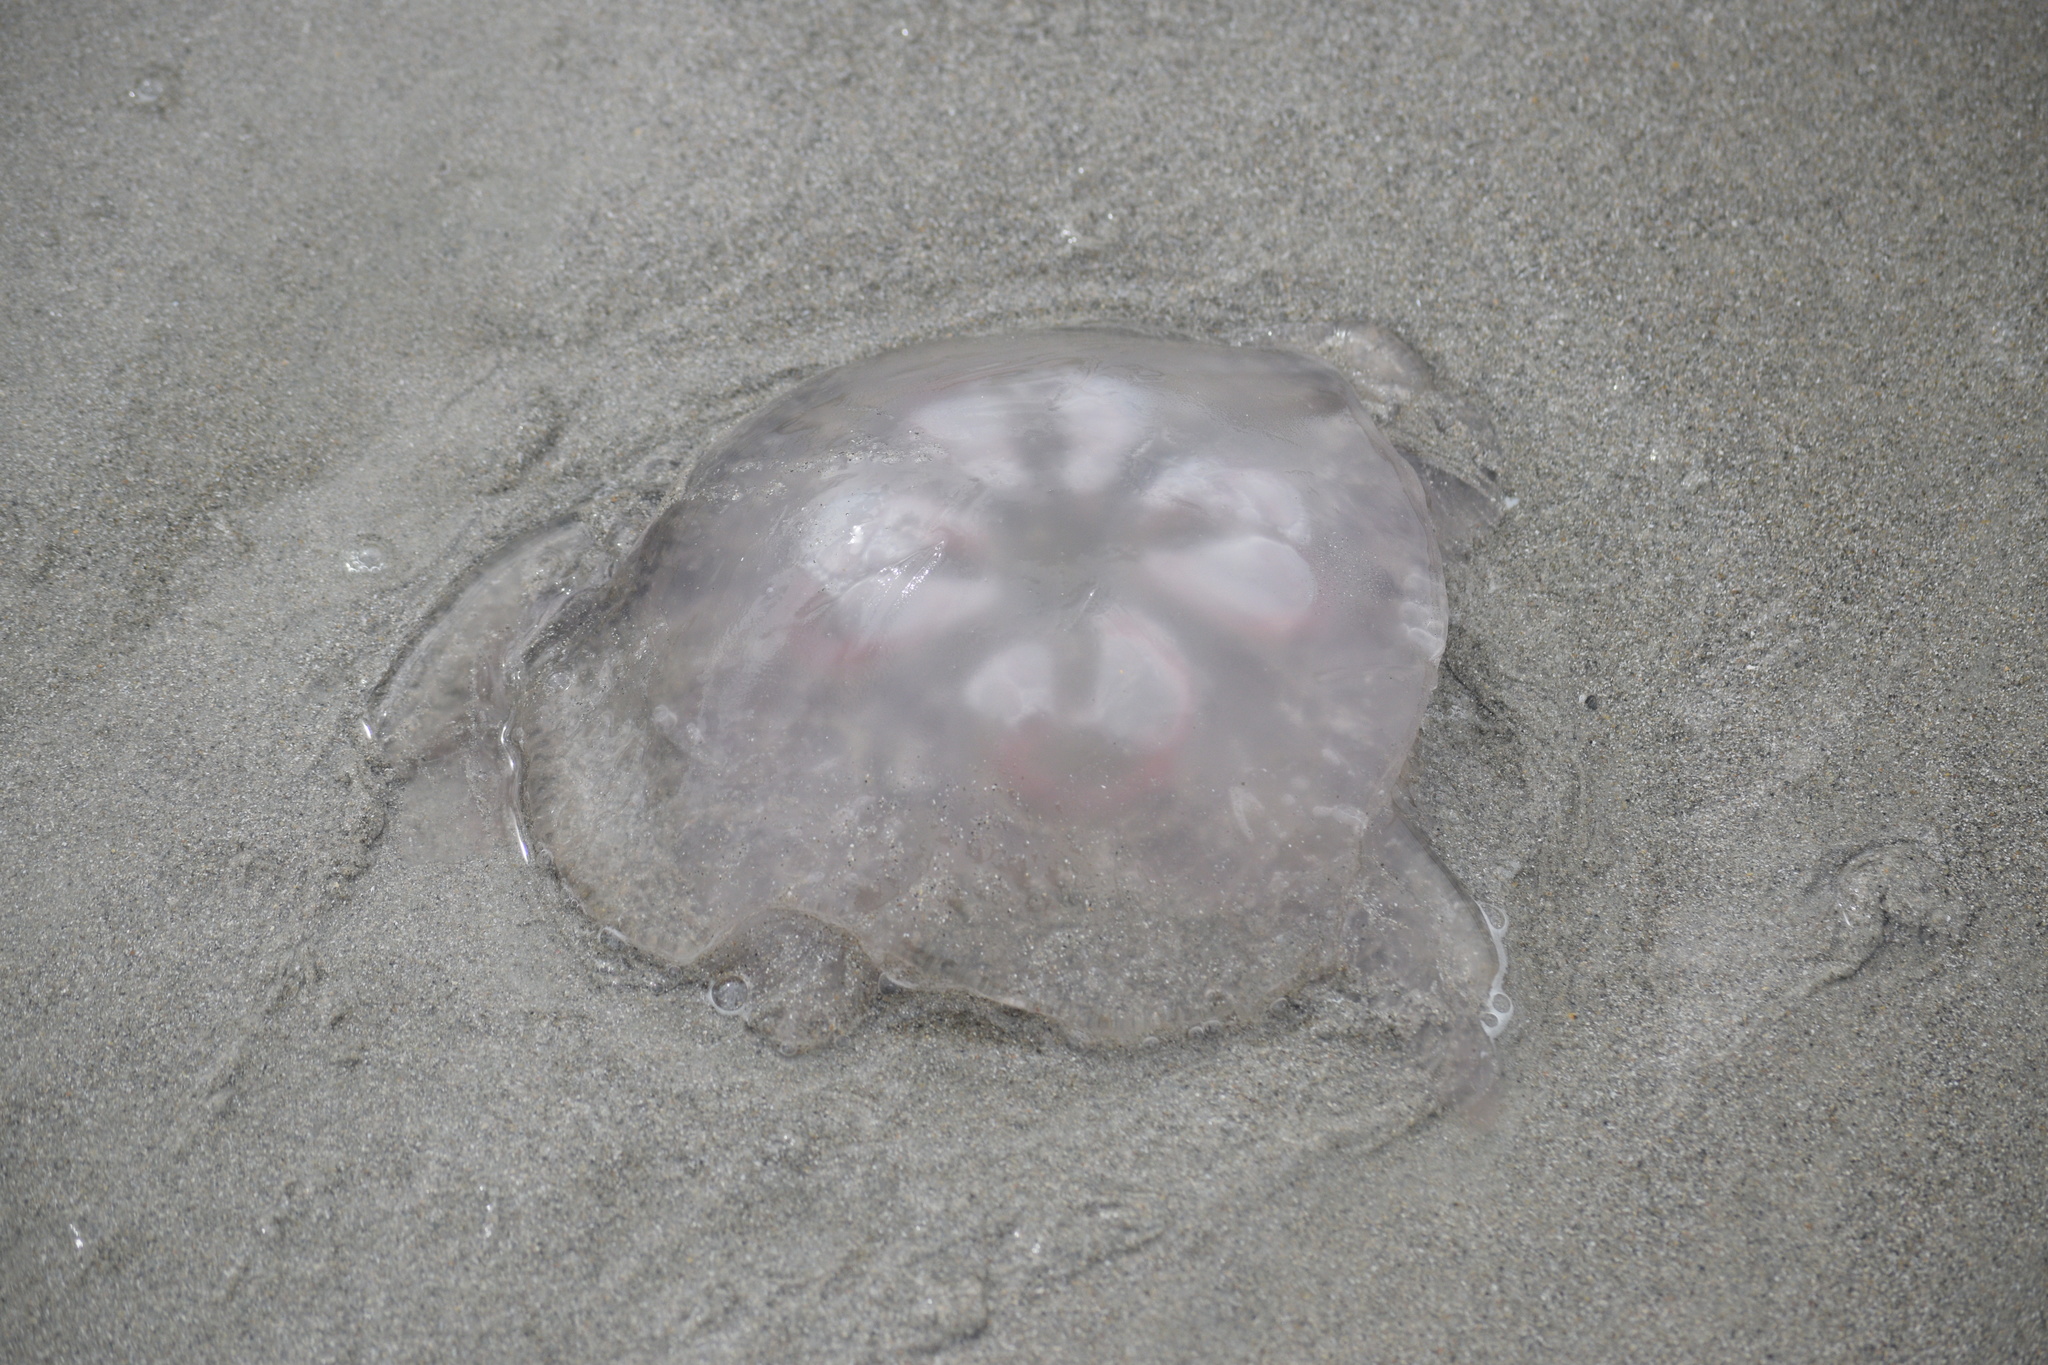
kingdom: Animalia
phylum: Cnidaria
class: Scyphozoa
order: Semaeostomeae
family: Ulmaridae
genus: Aurelia
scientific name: Aurelia marginalis
